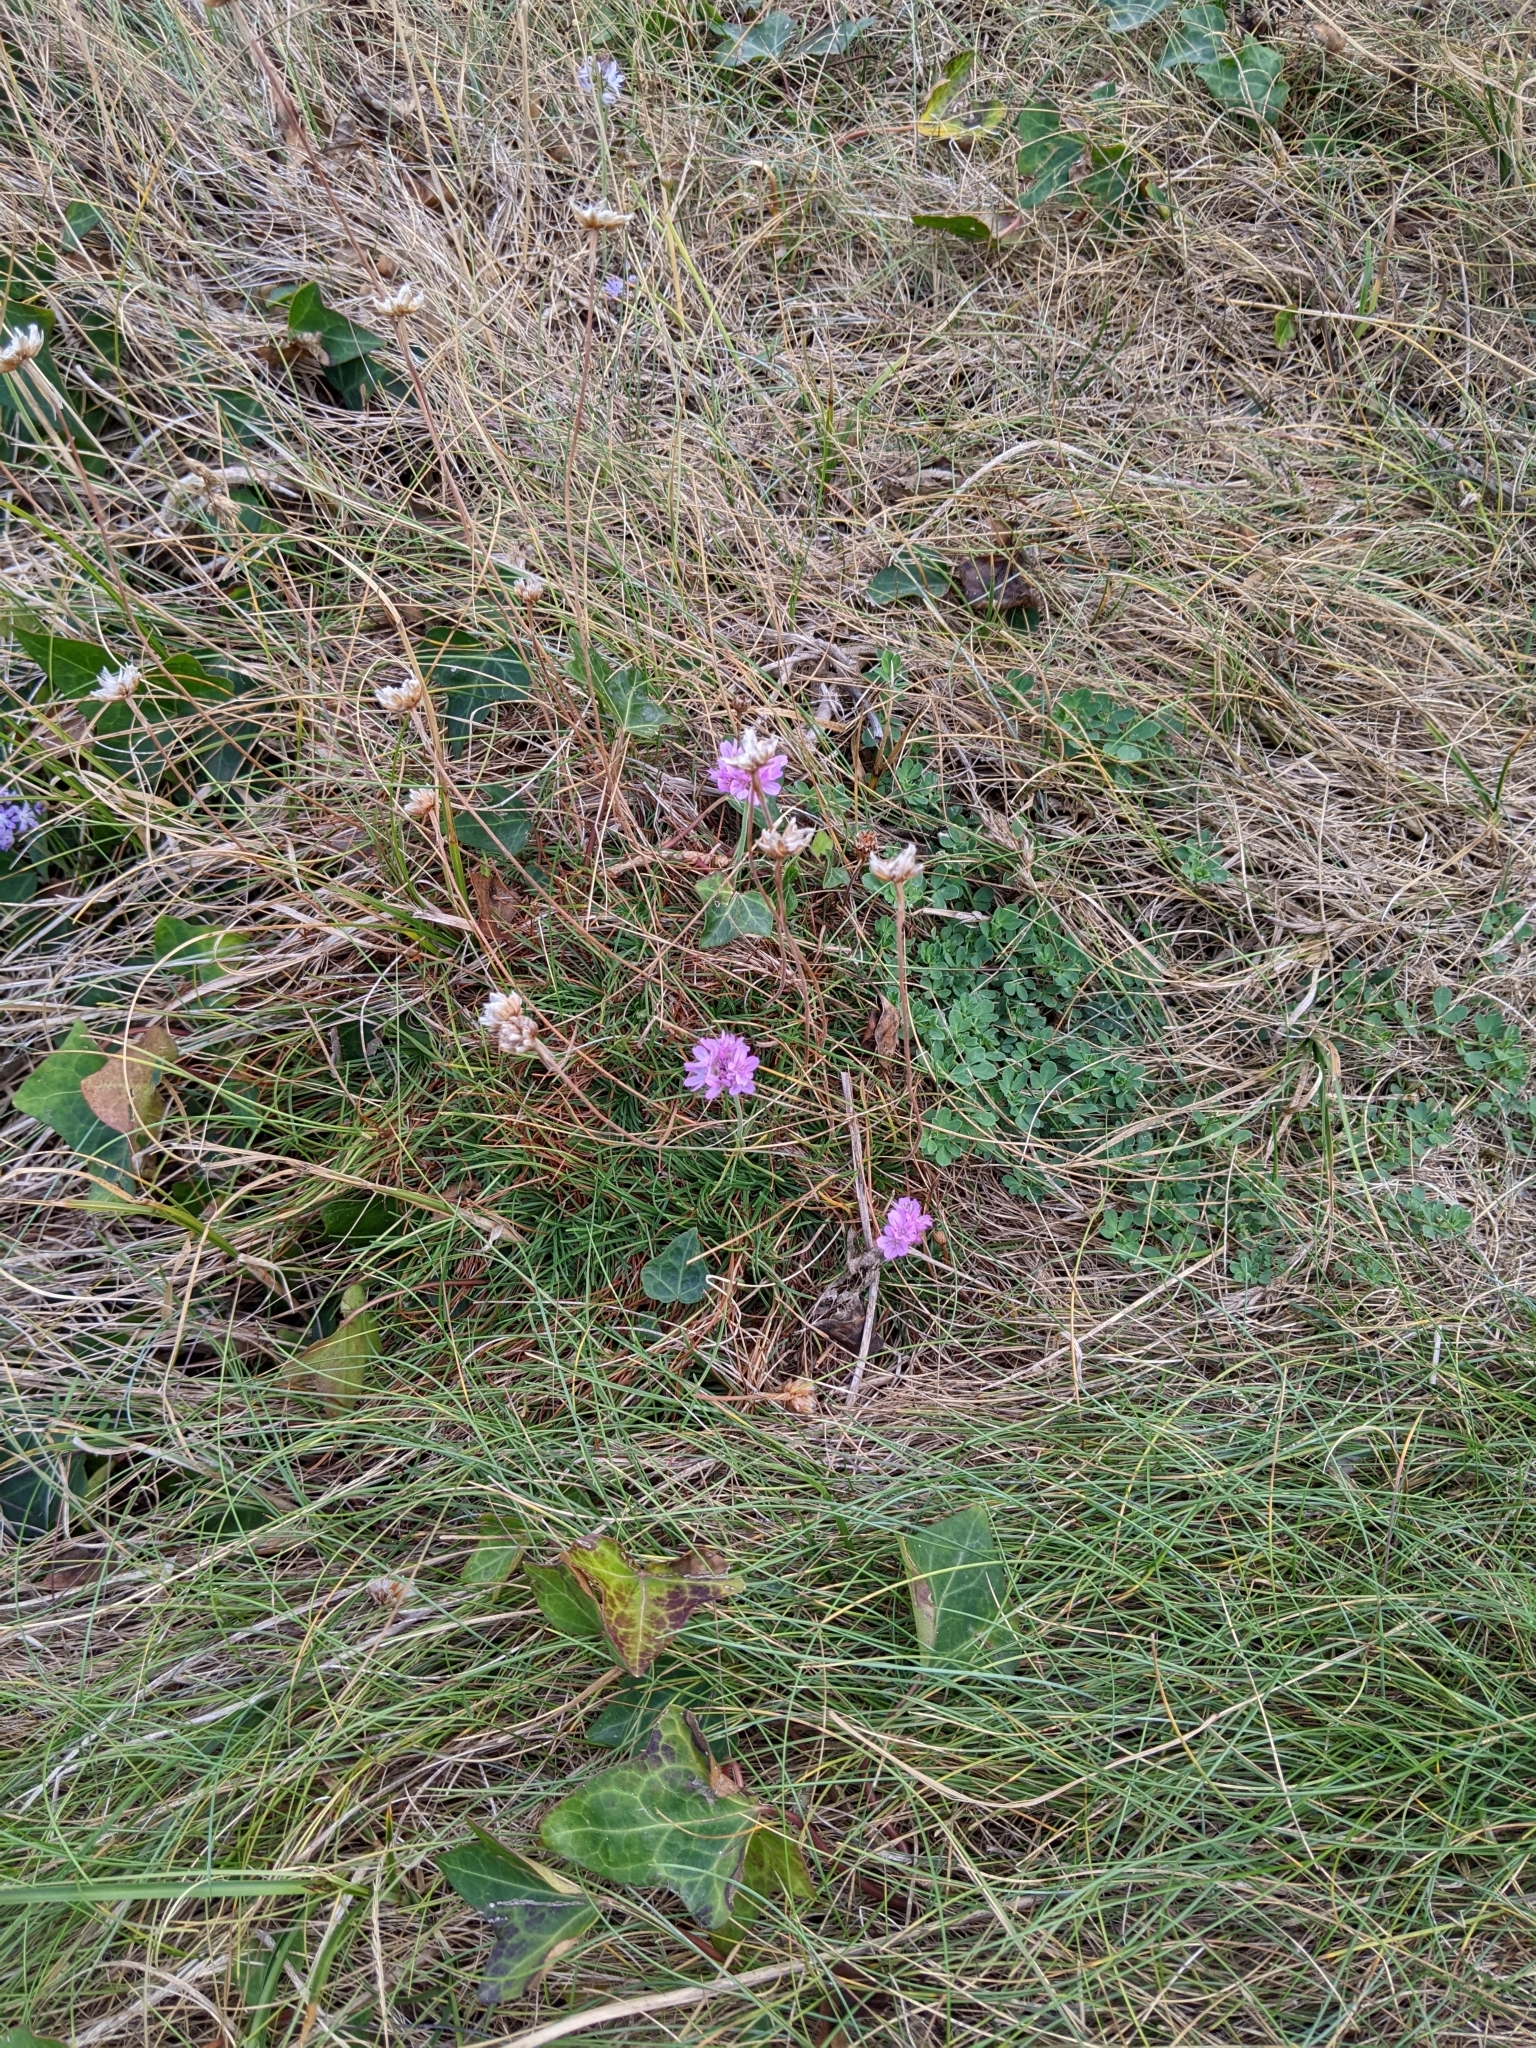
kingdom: Plantae
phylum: Tracheophyta
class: Magnoliopsida
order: Caryophyllales
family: Plumbaginaceae
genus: Armeria
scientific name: Armeria maritima
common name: Thrift
